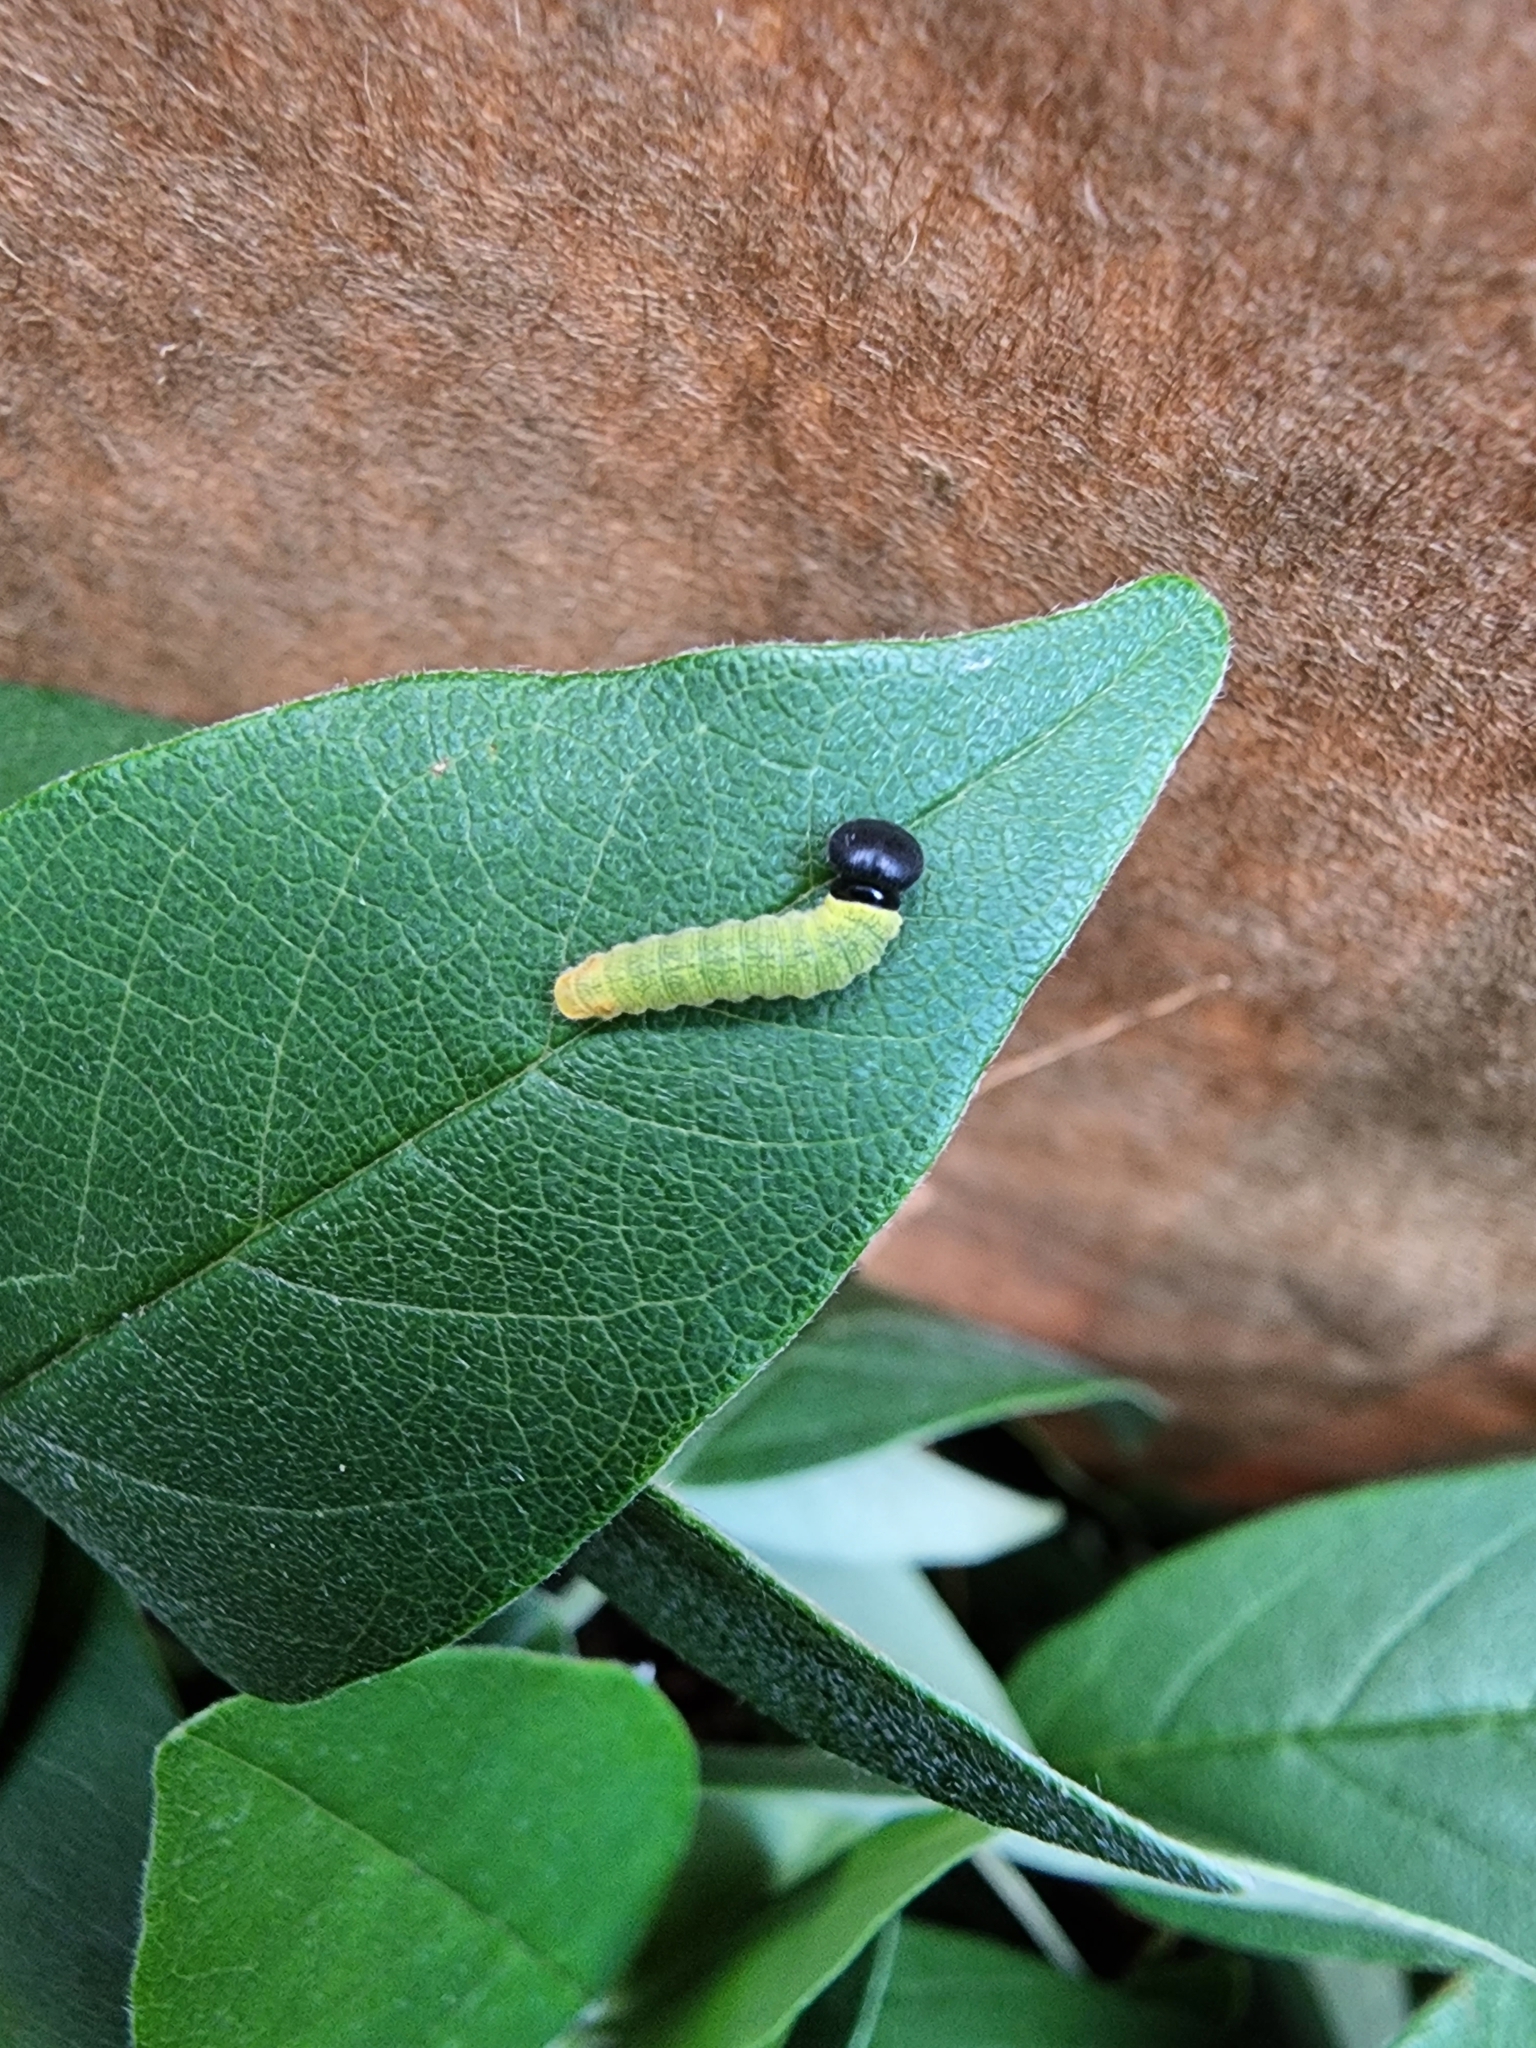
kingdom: Animalia
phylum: Arthropoda
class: Insecta
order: Lepidoptera
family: Hesperiidae
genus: Epargyreus
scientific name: Epargyreus clarus
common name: Silver-spotted skipper
